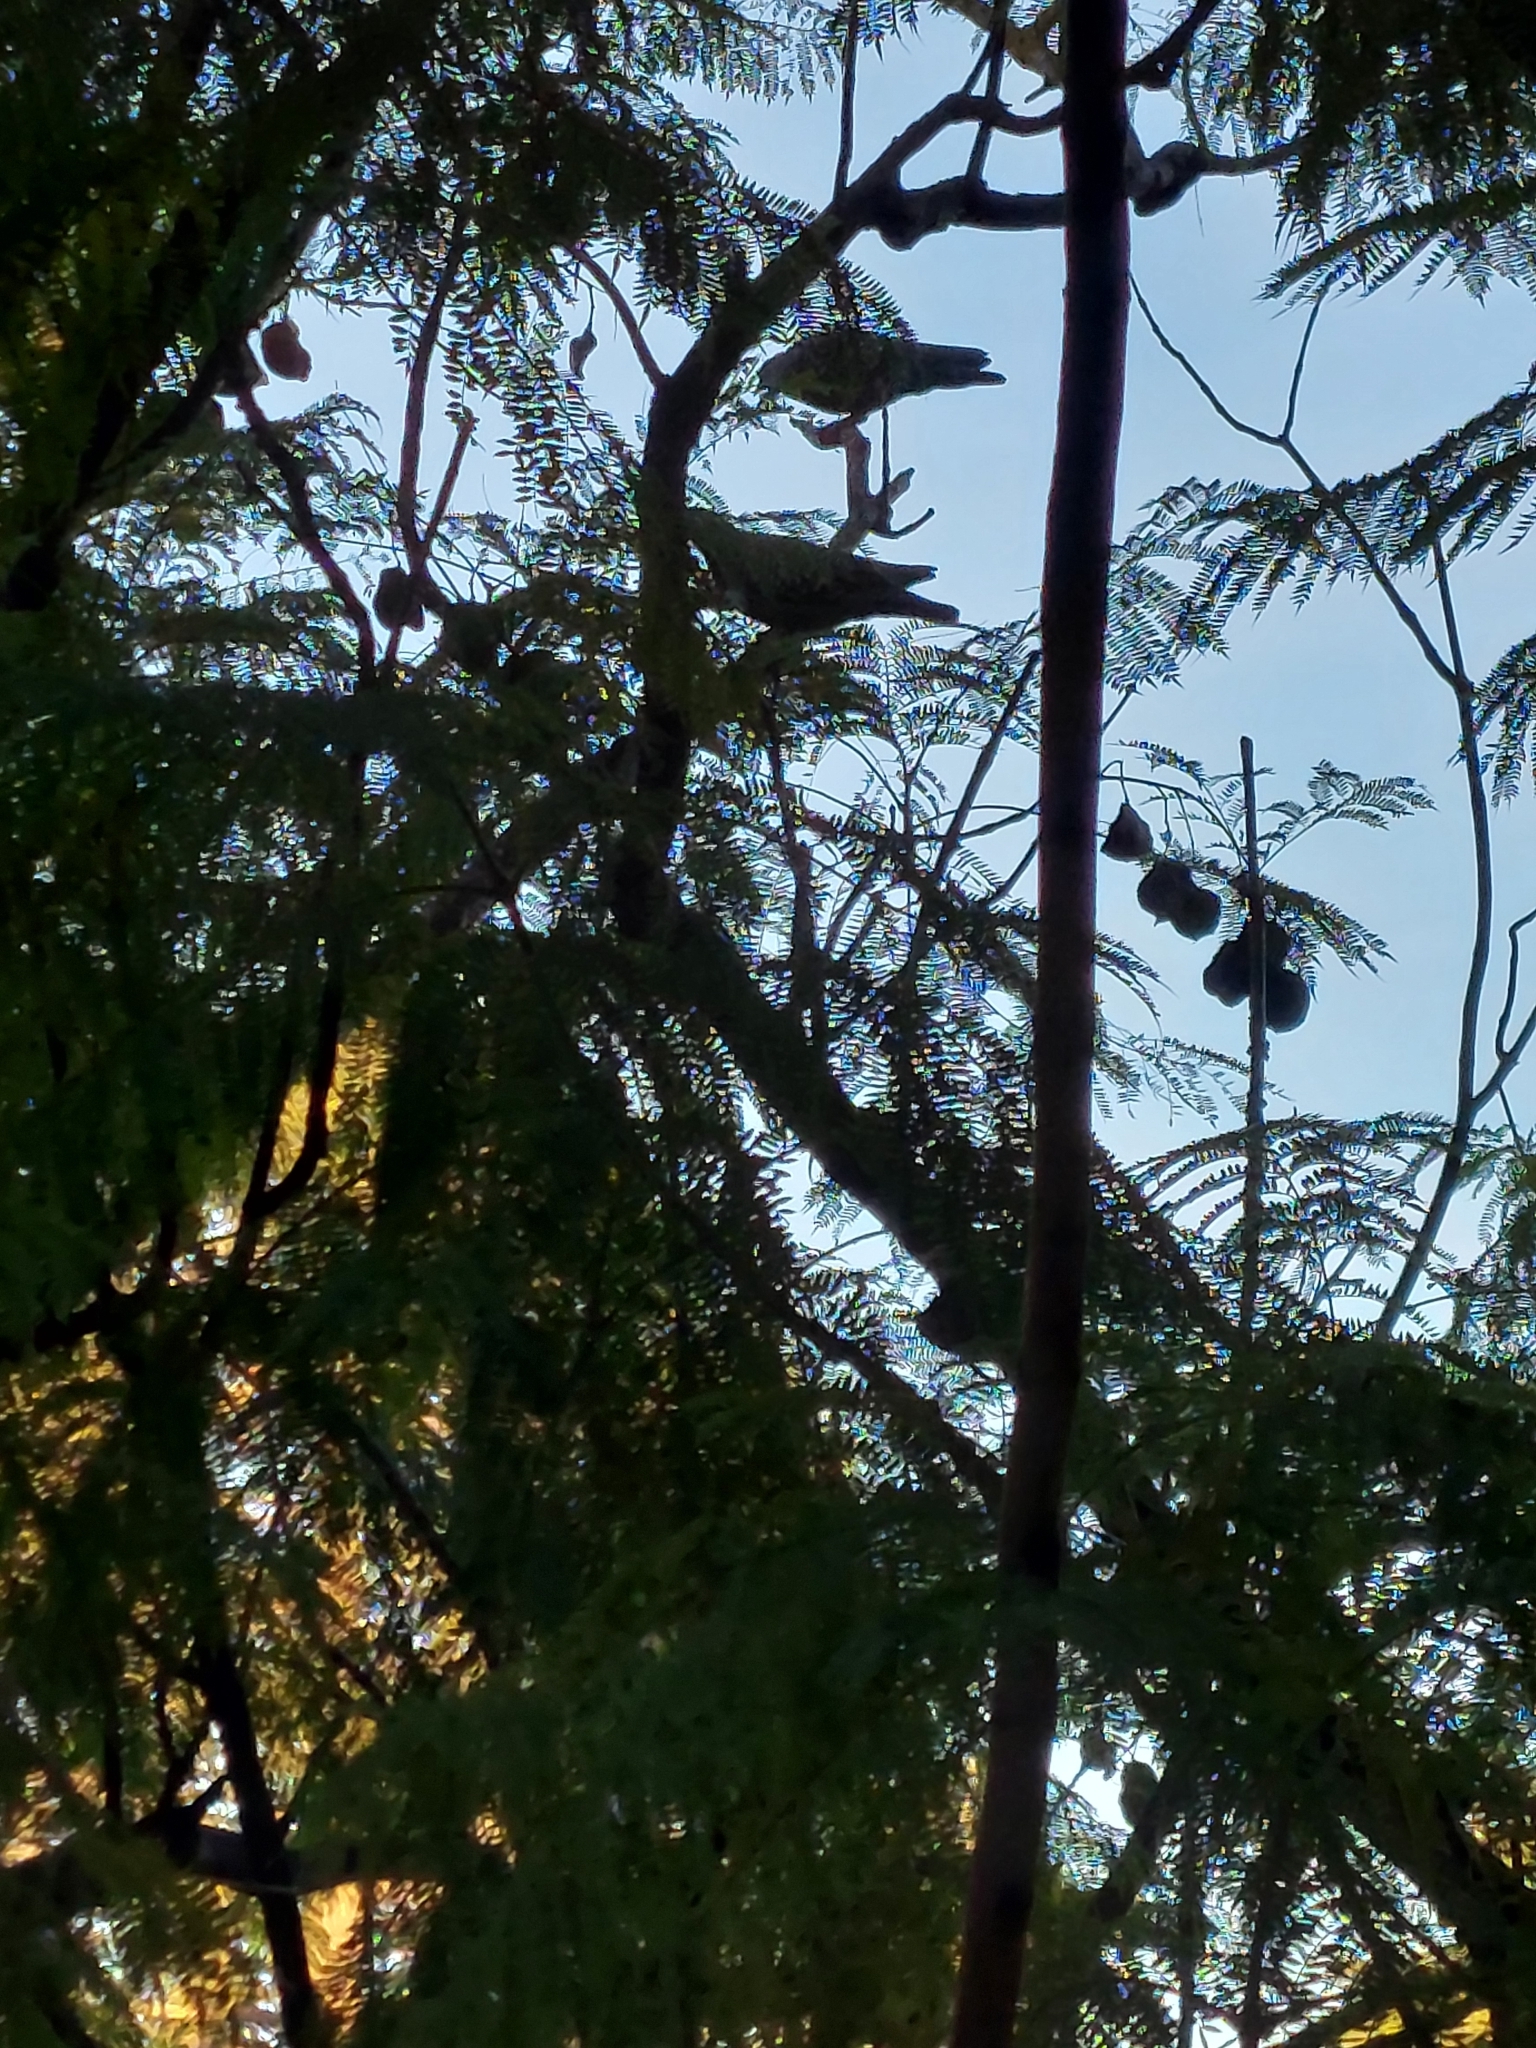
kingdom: Animalia
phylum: Chordata
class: Aves
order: Columbiformes
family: Columbidae
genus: Patagioenas
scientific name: Patagioenas maculosa
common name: Spot-winged pigeon
